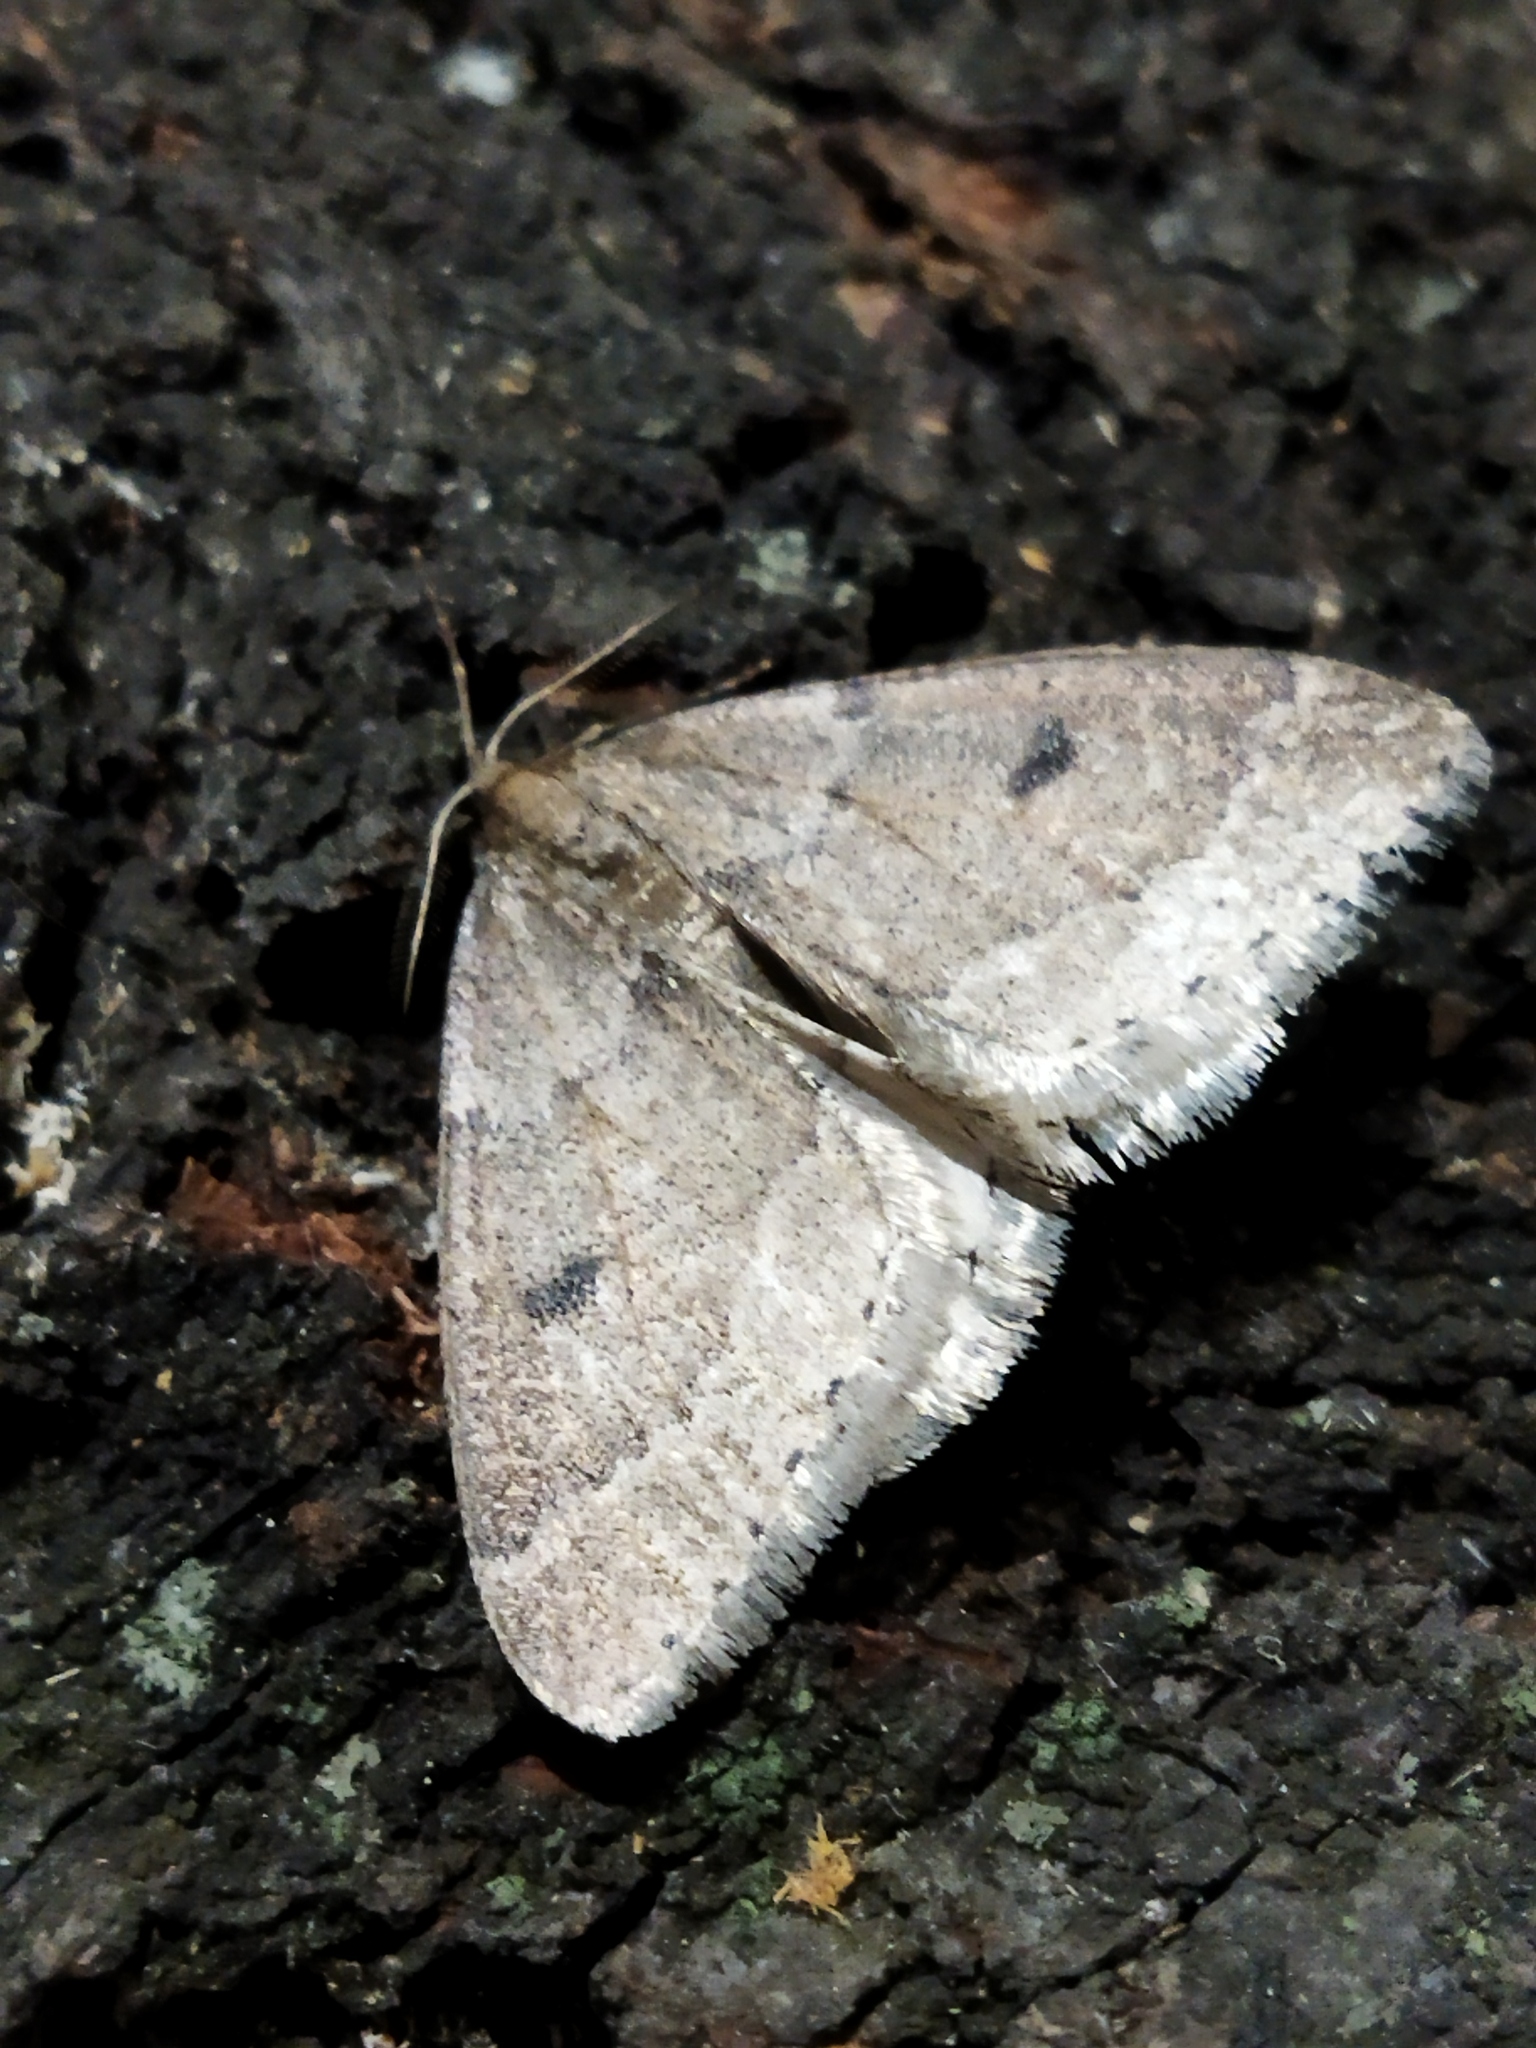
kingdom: Animalia
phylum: Arthropoda
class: Insecta
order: Lepidoptera
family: Geometridae
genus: Theria
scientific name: Theria rupicapraria
